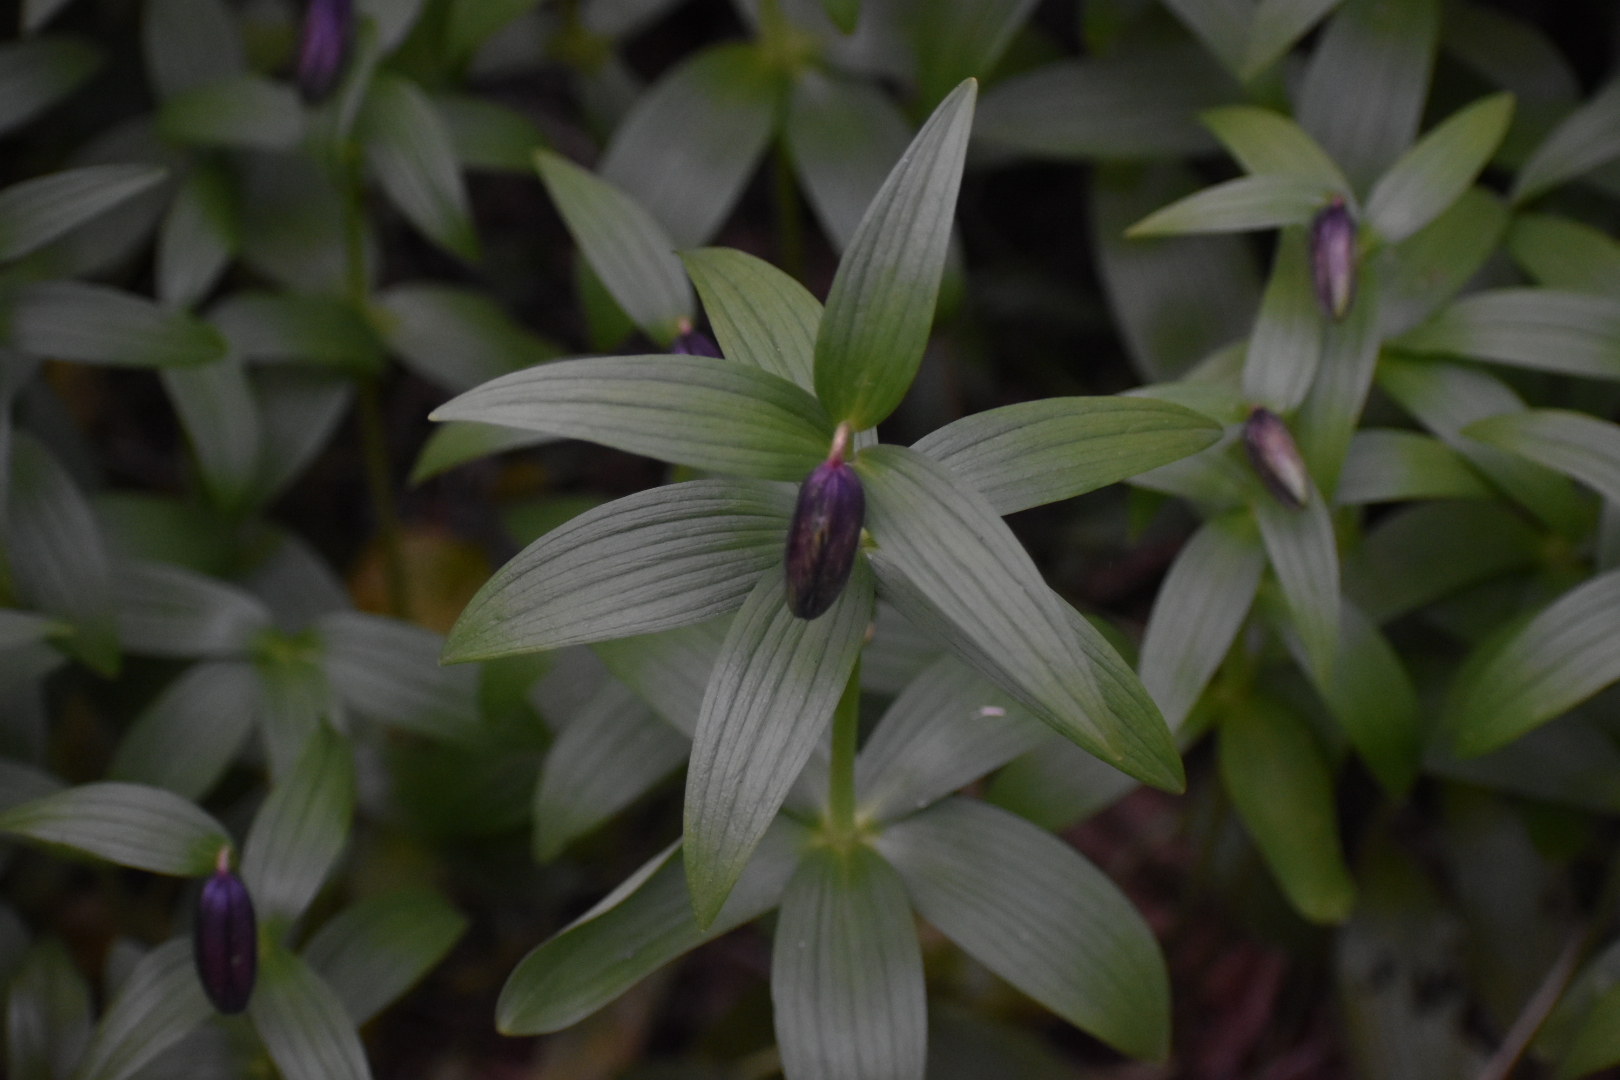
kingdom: Plantae
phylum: Tracheophyta
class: Liliopsida
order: Liliales
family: Liliaceae
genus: Fritillaria
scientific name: Fritillaria camschatcensis
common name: Kamchatka fritillary
